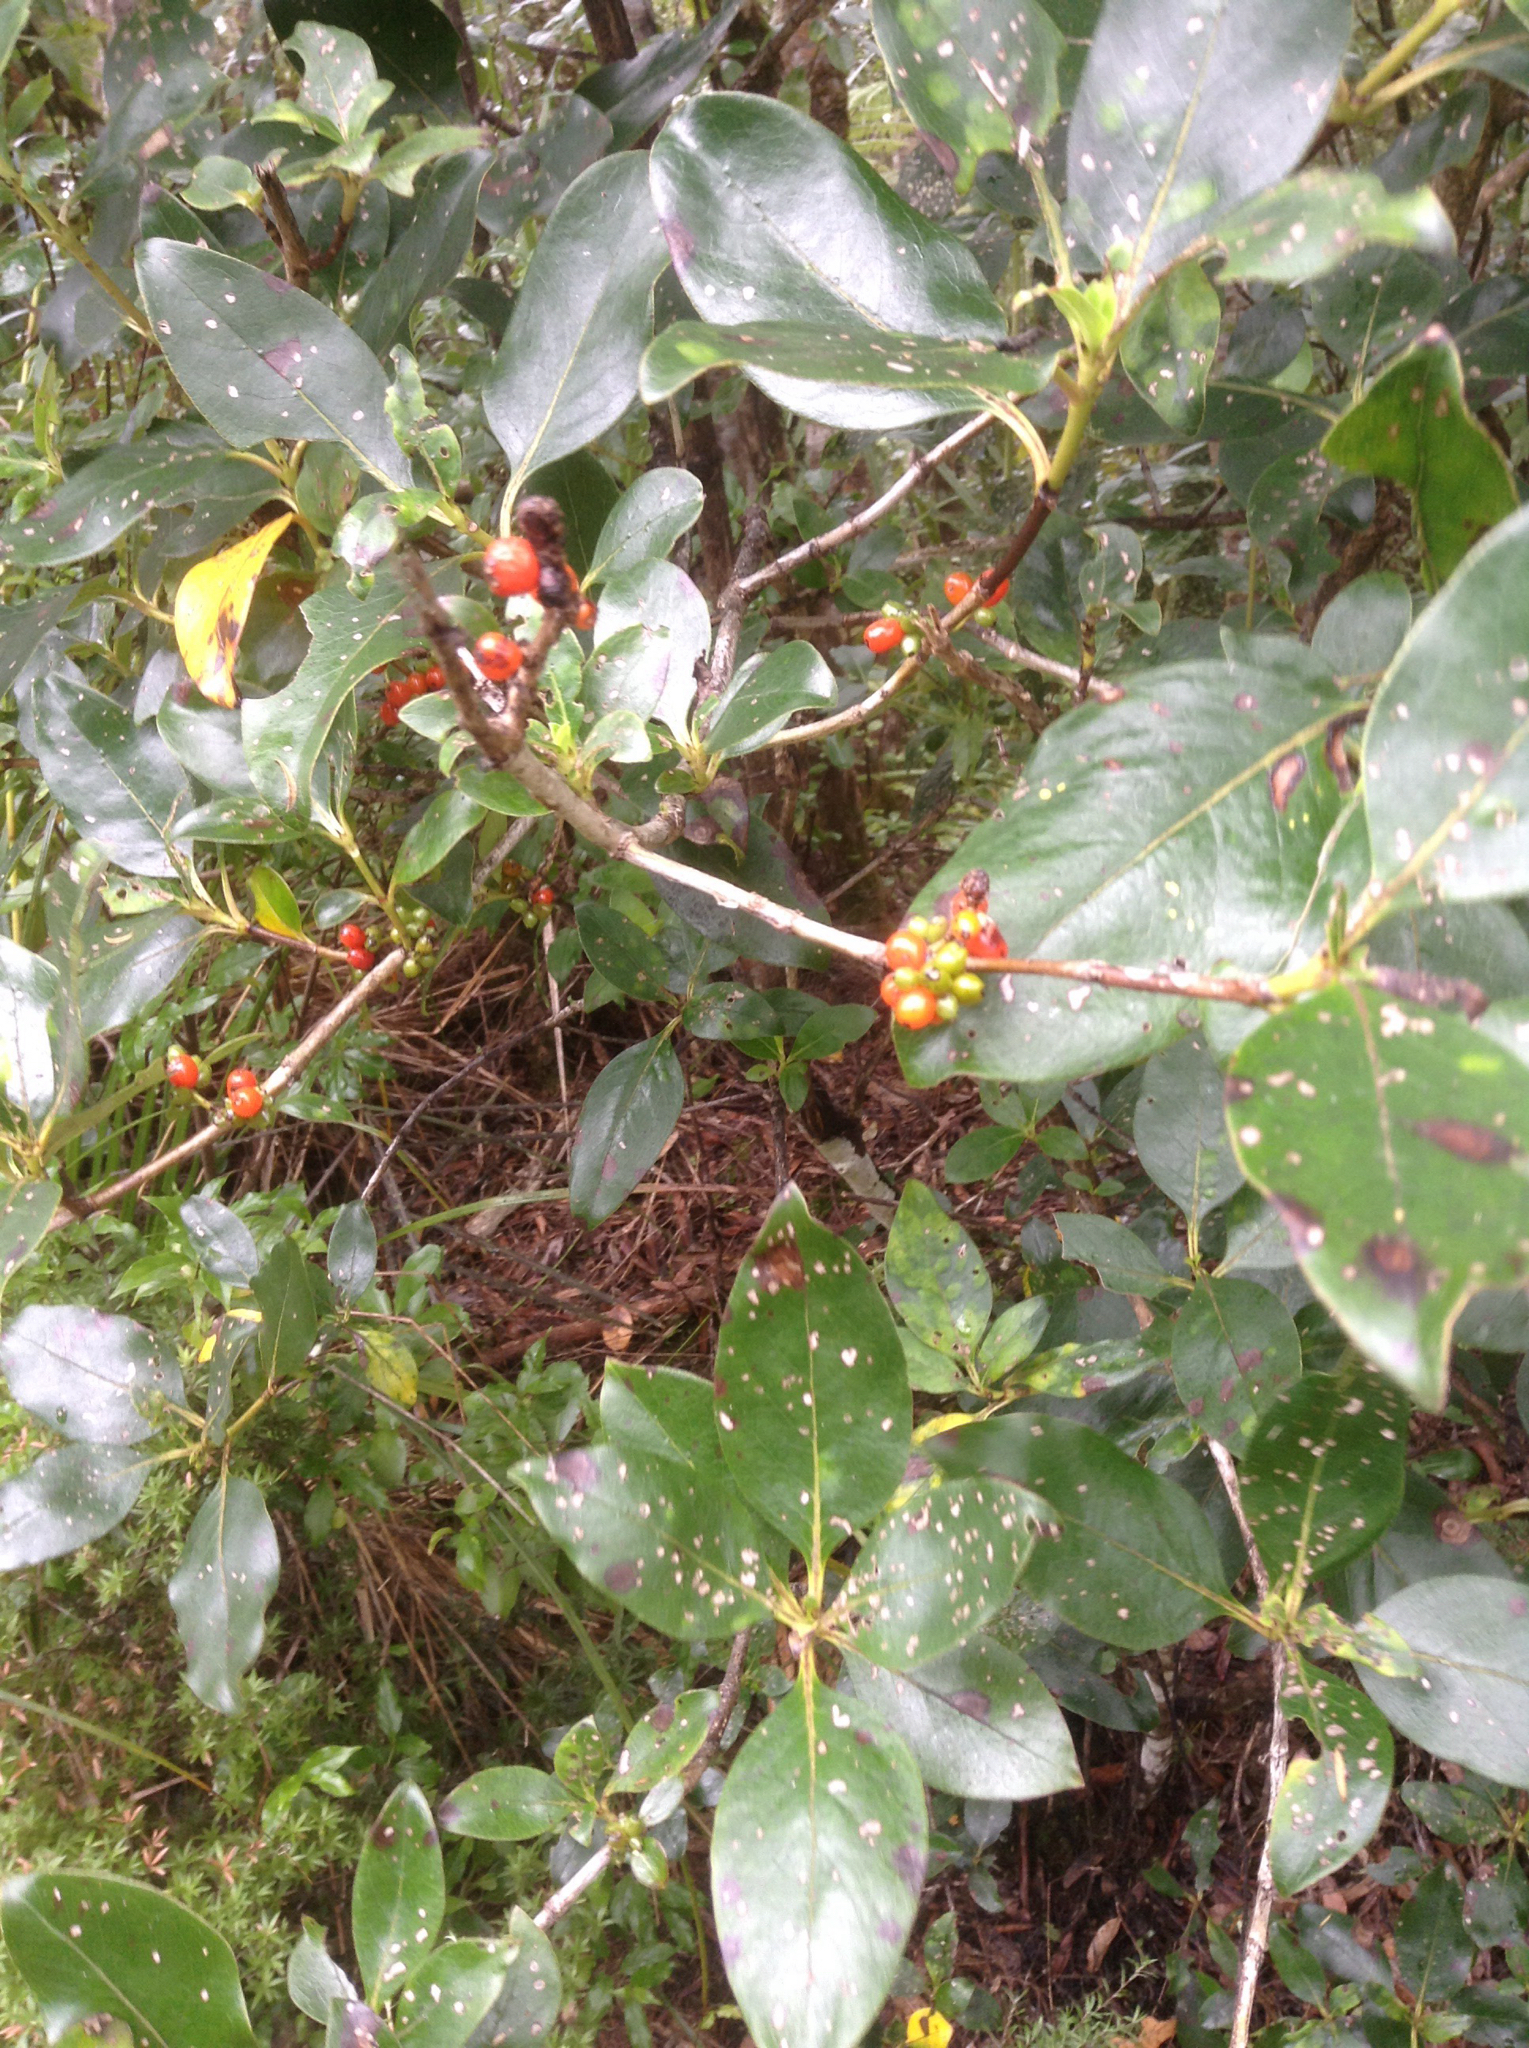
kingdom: Plantae
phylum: Tracheophyta
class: Magnoliopsida
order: Gentianales
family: Rubiaceae
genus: Coprosma
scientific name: Coprosma robusta
